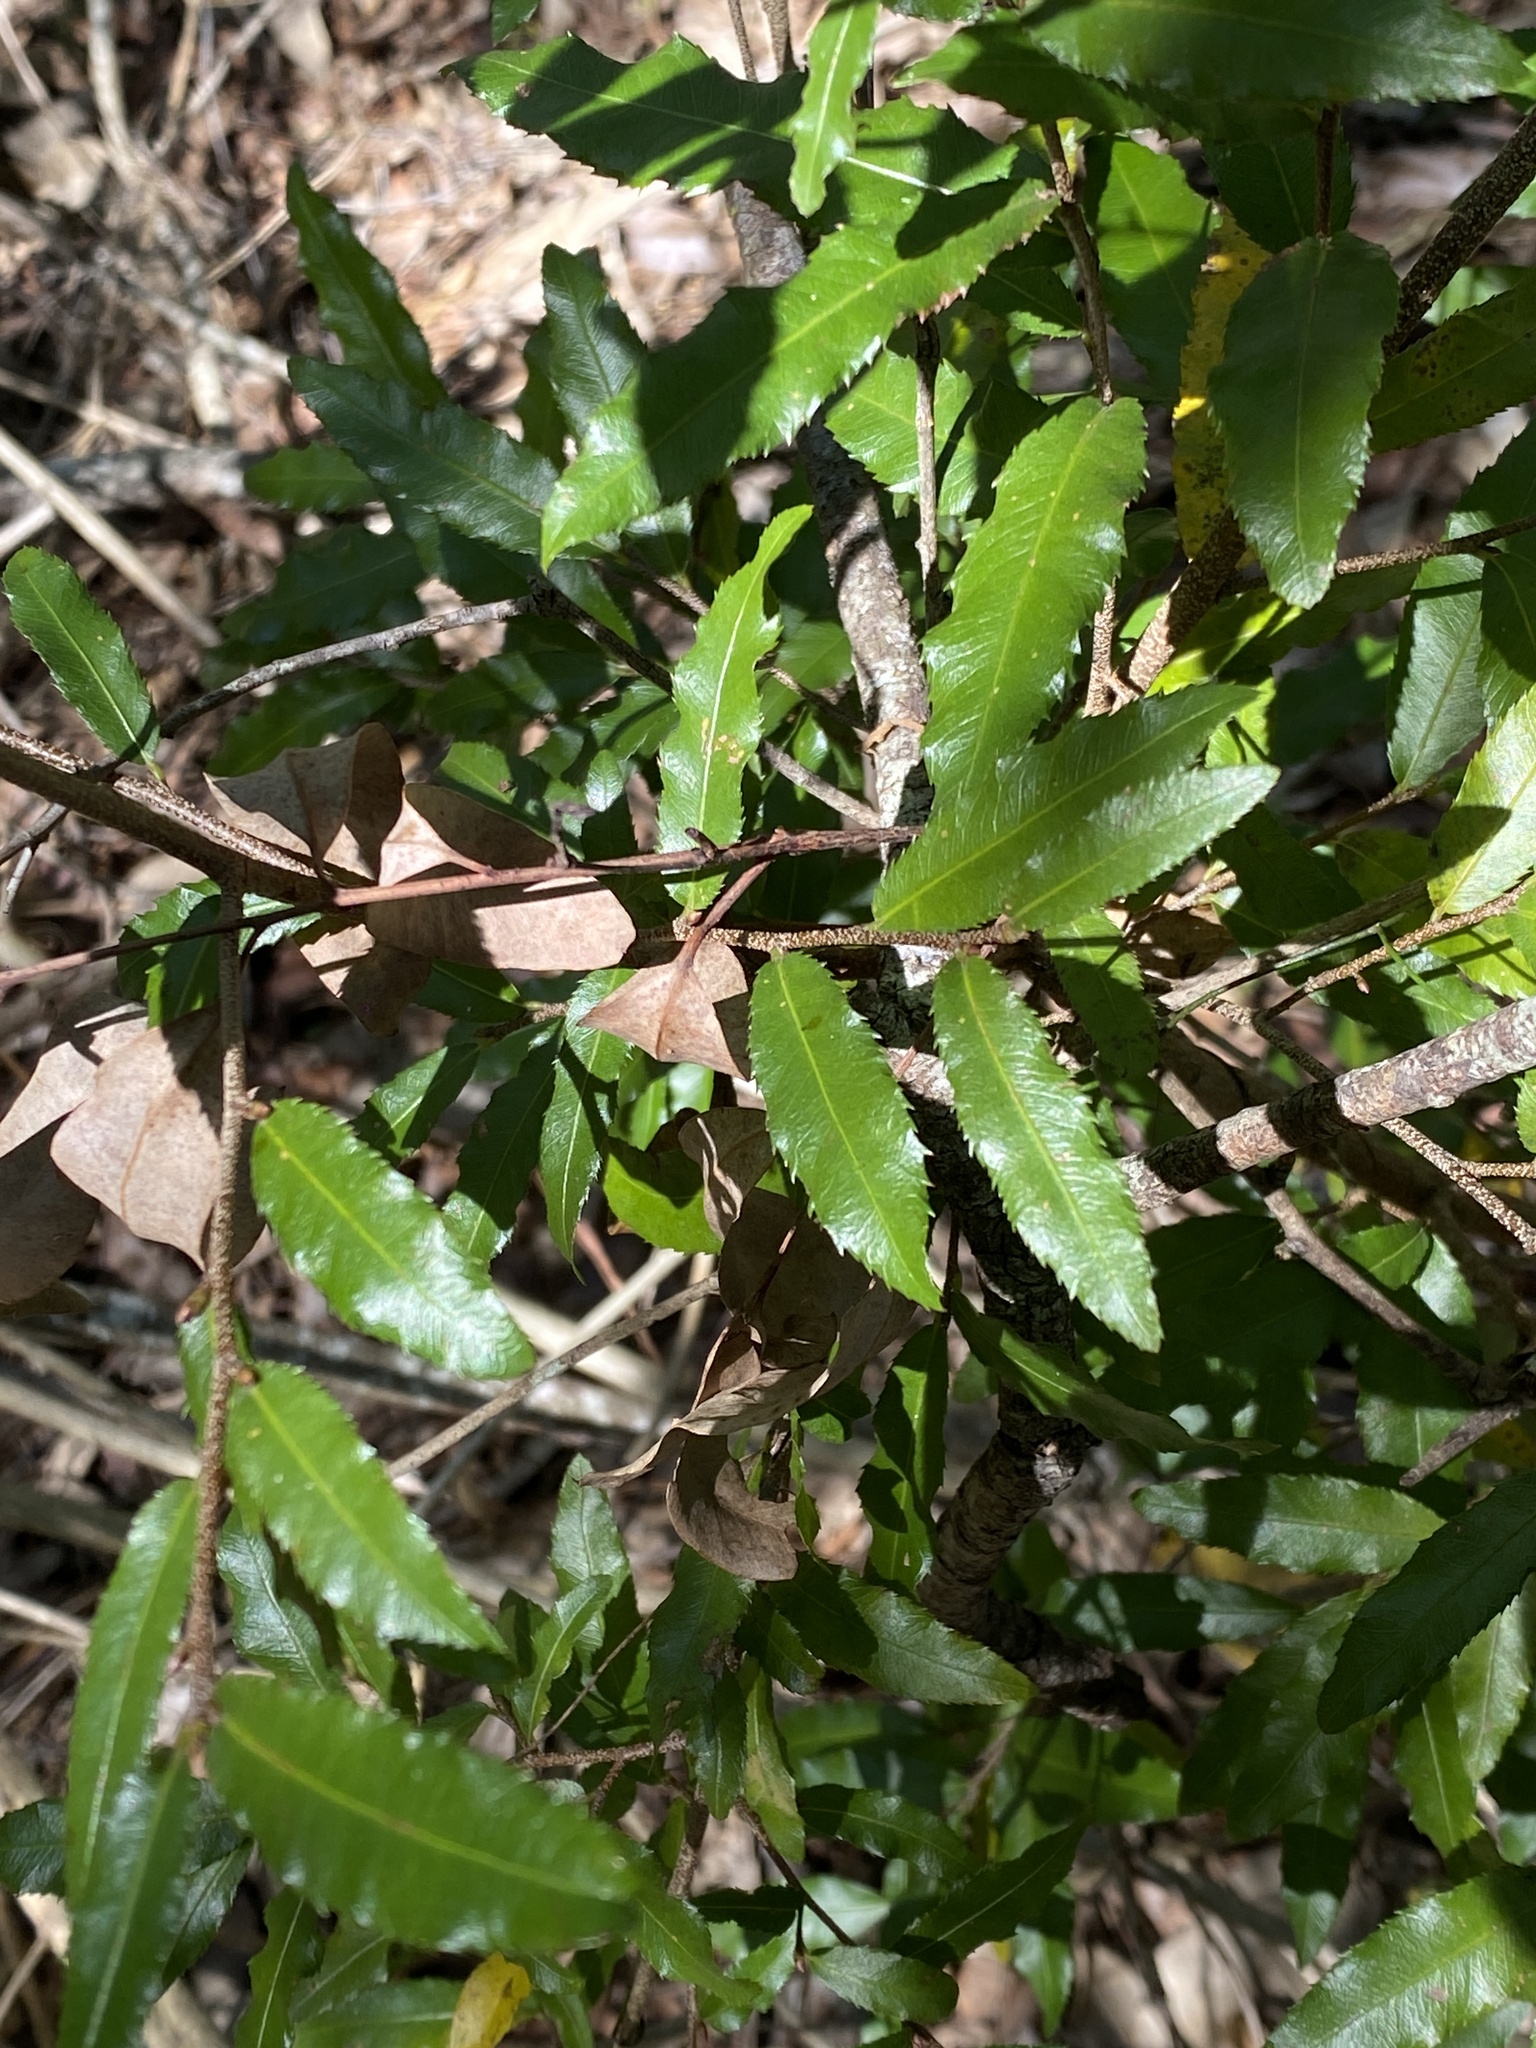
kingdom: Plantae
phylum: Tracheophyta
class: Magnoliopsida
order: Malpighiales
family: Ochnaceae
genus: Ochna
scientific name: Ochna serrulata
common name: Mickey mouse plant
